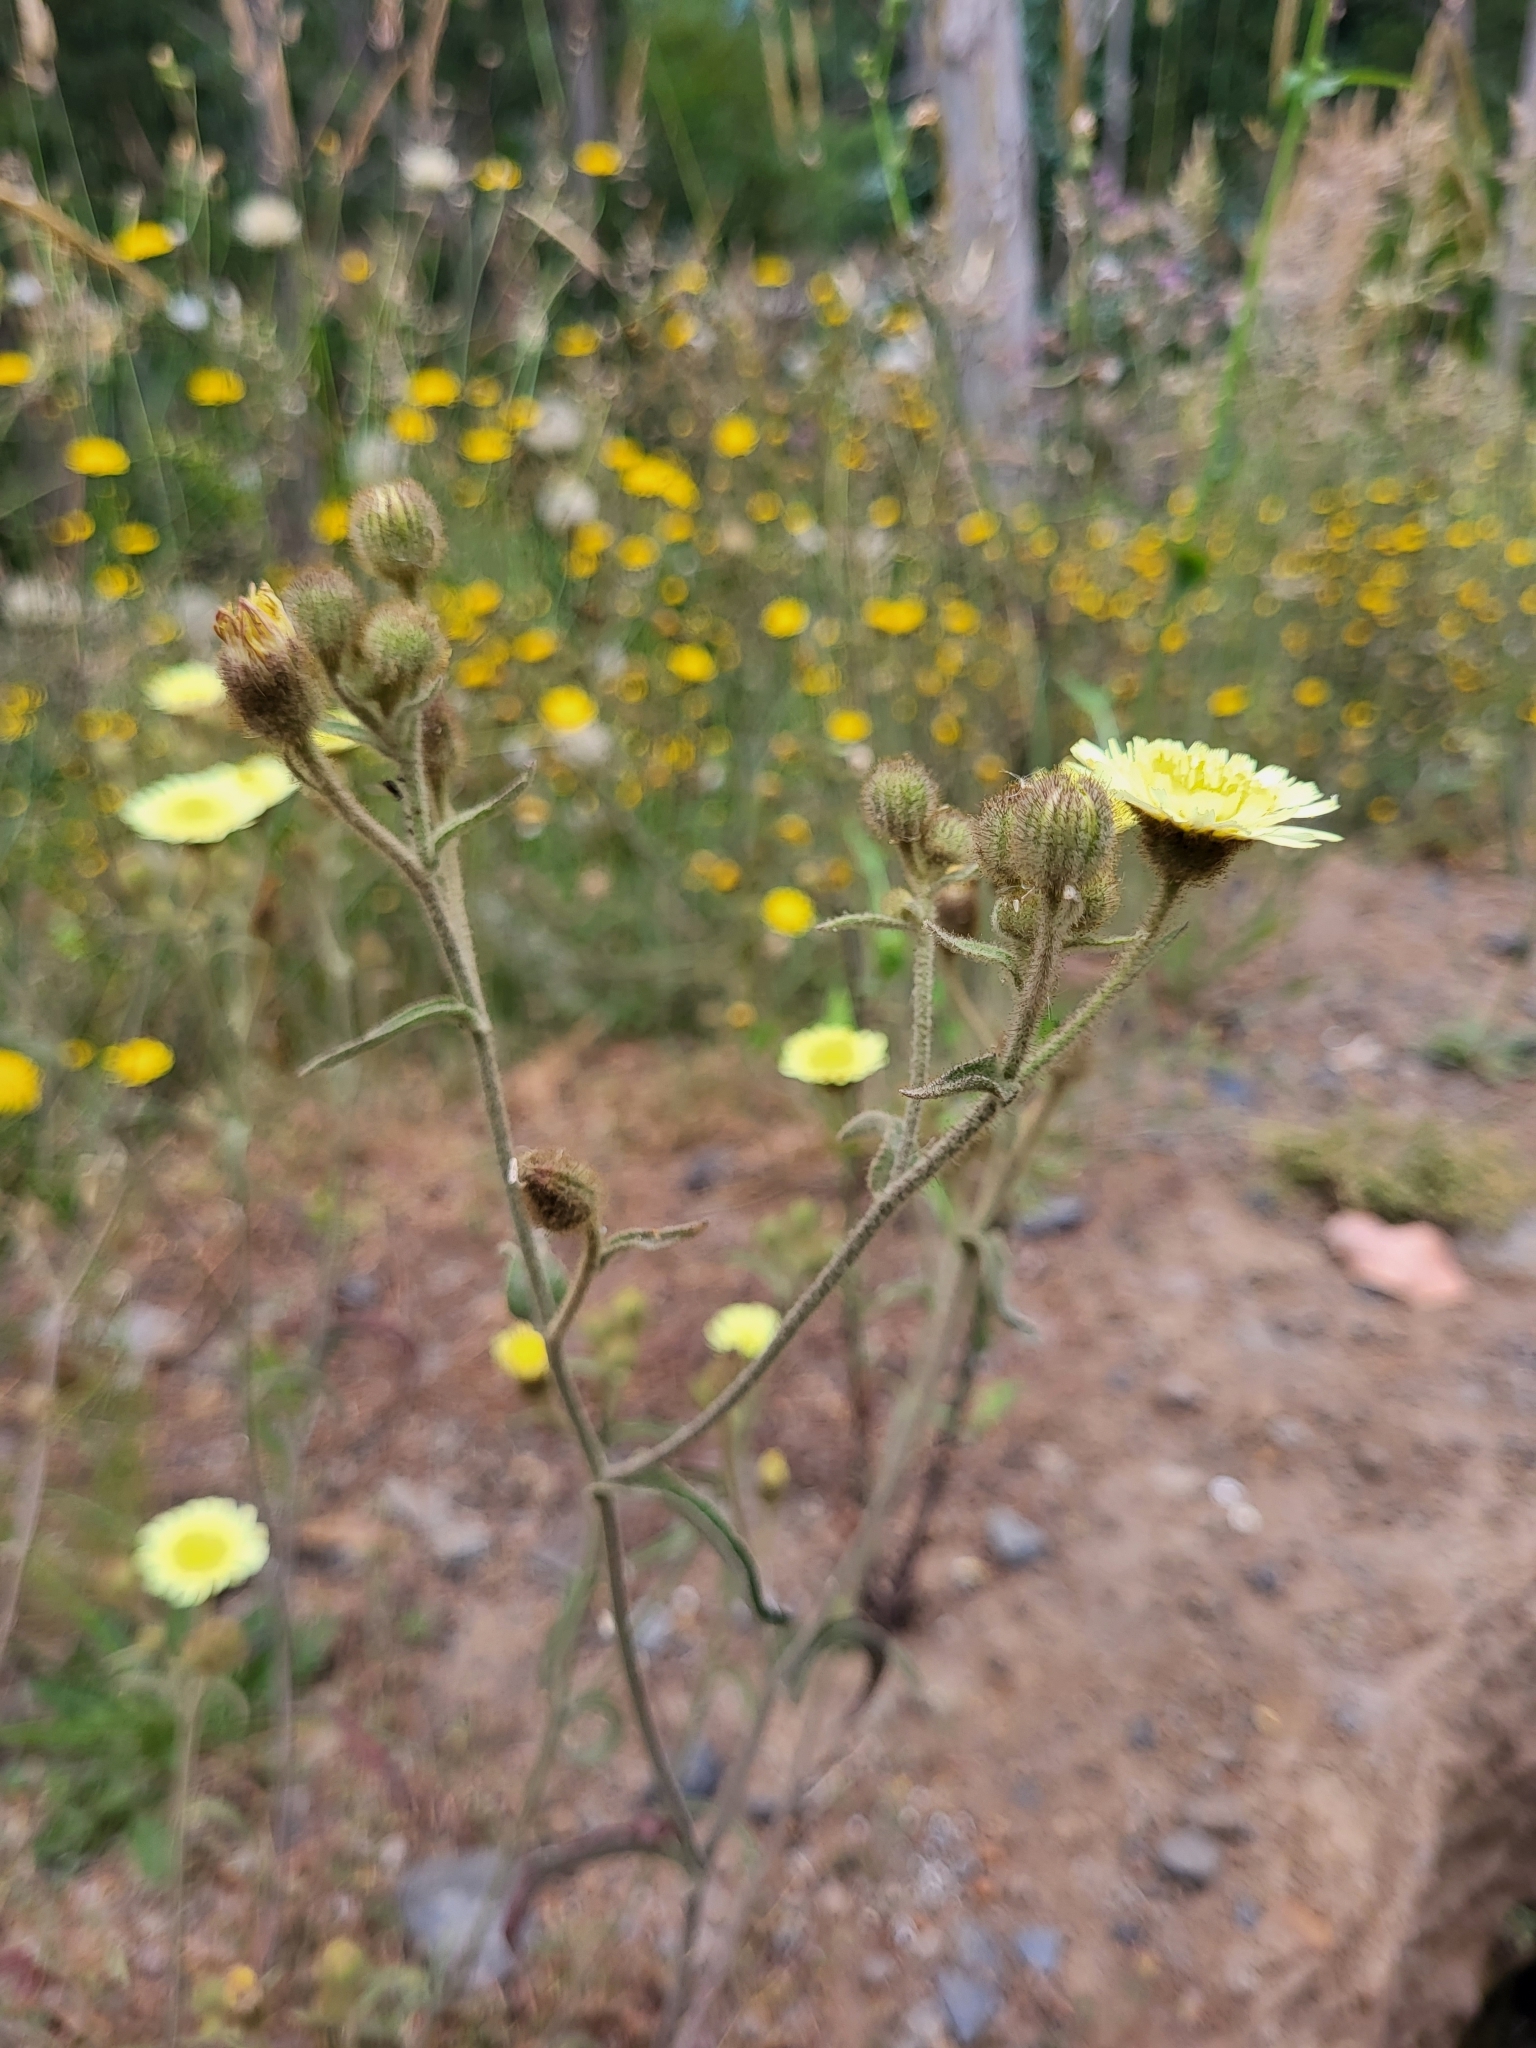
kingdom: Plantae
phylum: Tracheophyta
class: Magnoliopsida
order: Asterales
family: Asteraceae
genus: Andryala
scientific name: Andryala integrifolia
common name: Common andryala
